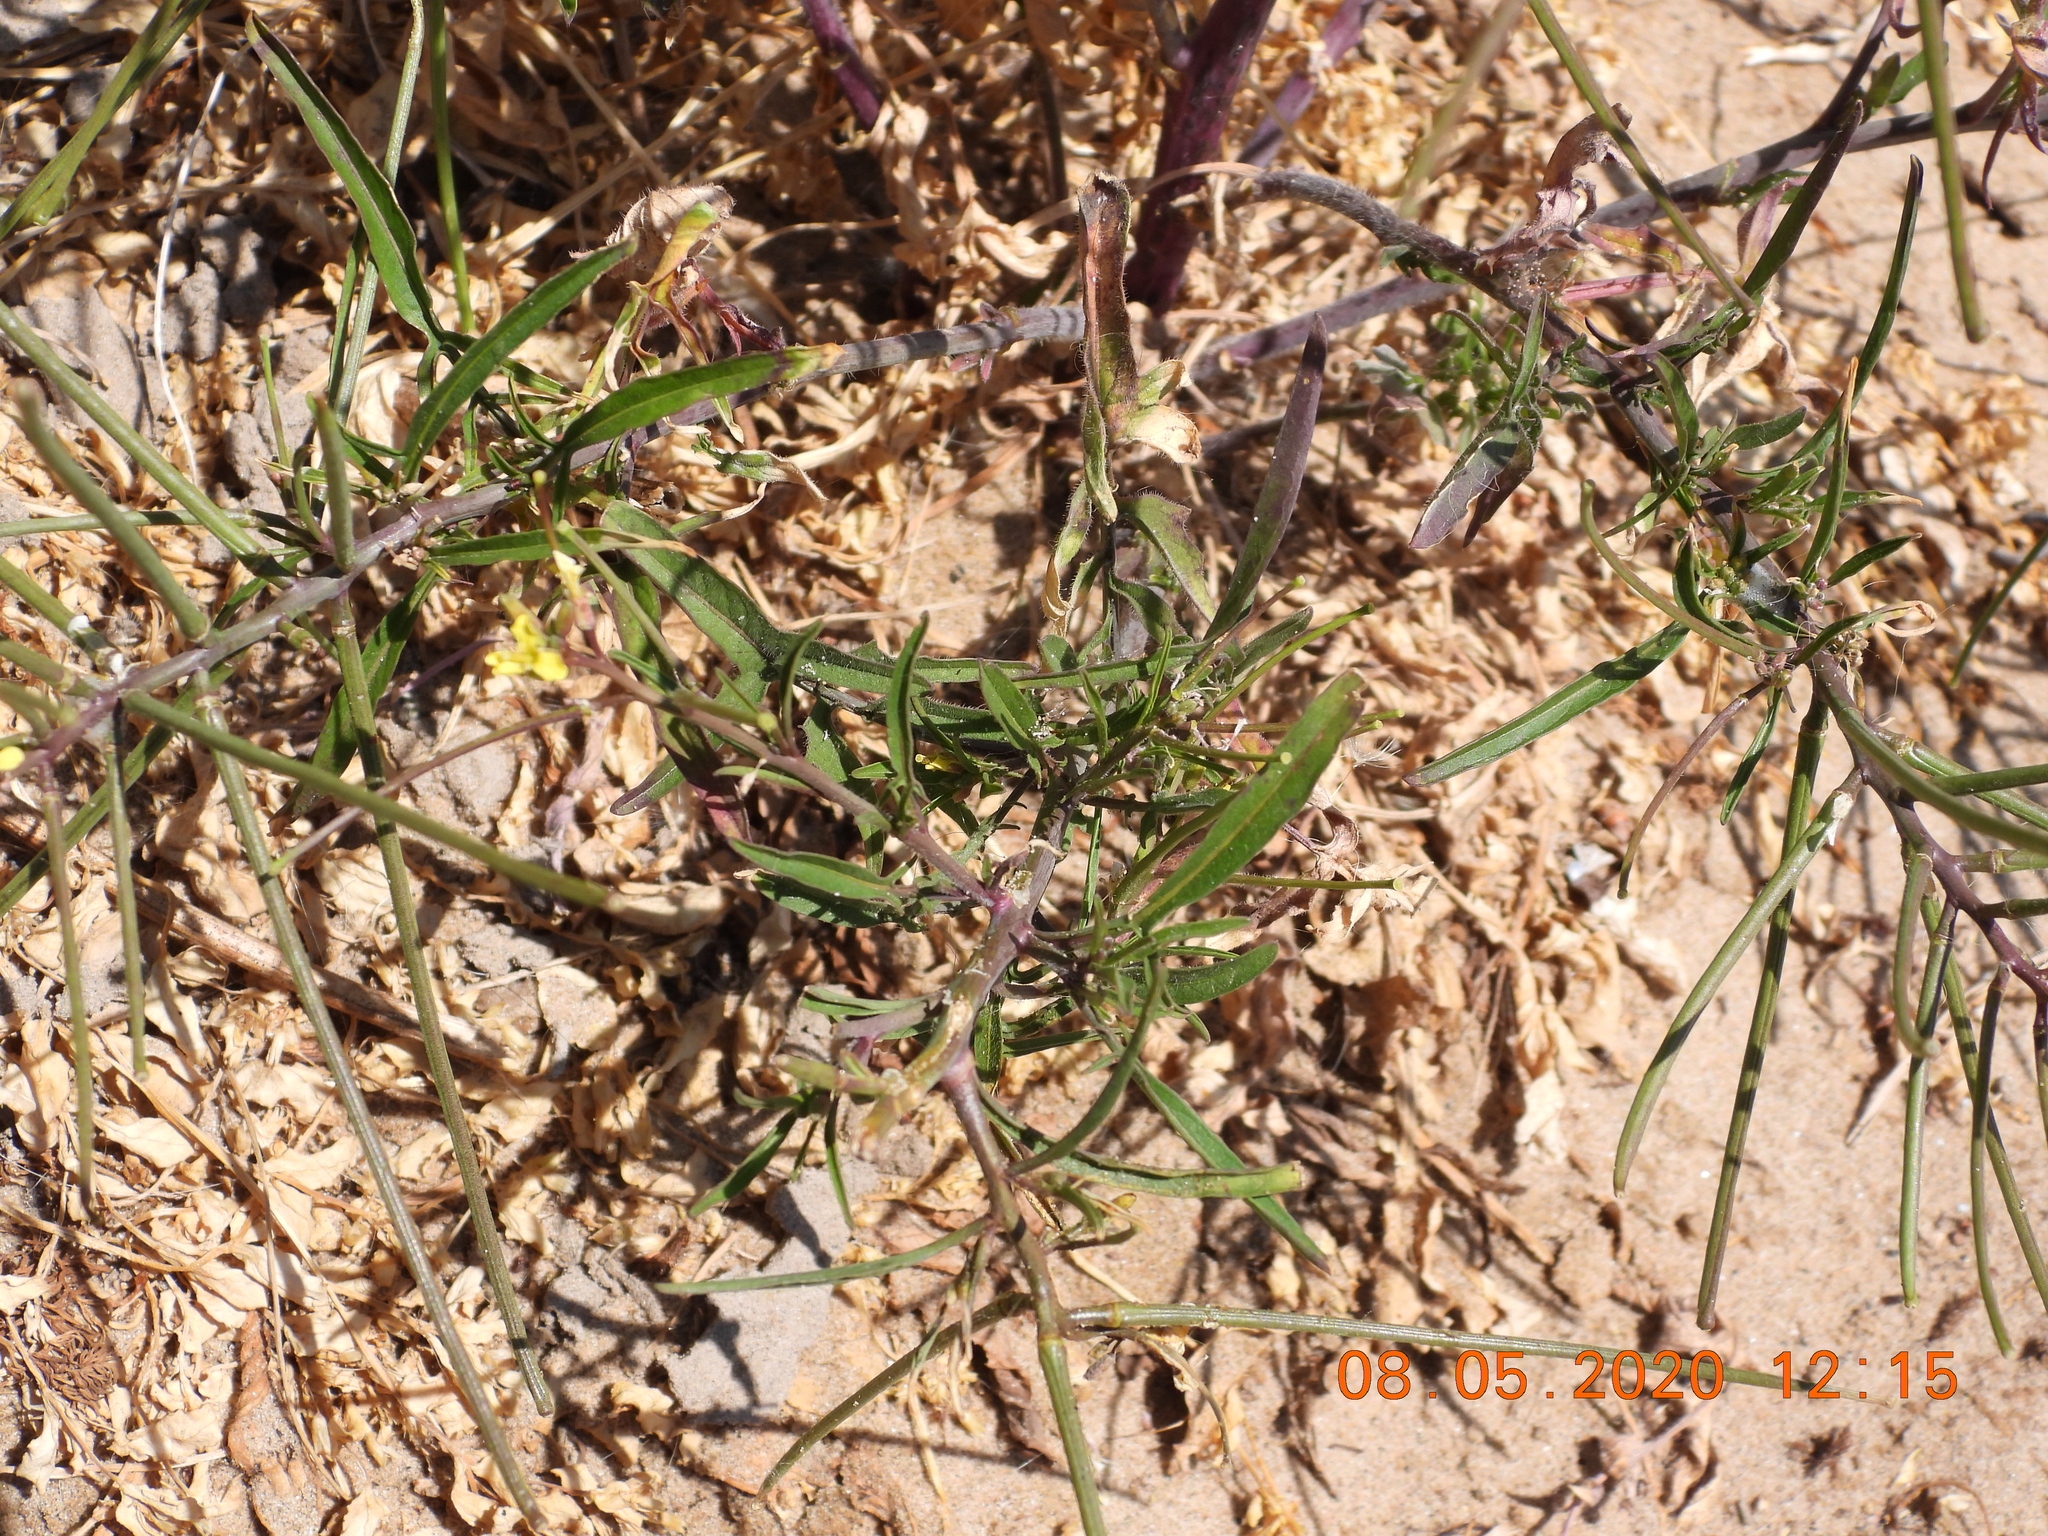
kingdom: Plantae
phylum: Tracheophyta
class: Magnoliopsida
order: Brassicales
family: Brassicaceae
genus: Sisymbrium
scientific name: Sisymbrium orientale
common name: Eastern rocket
